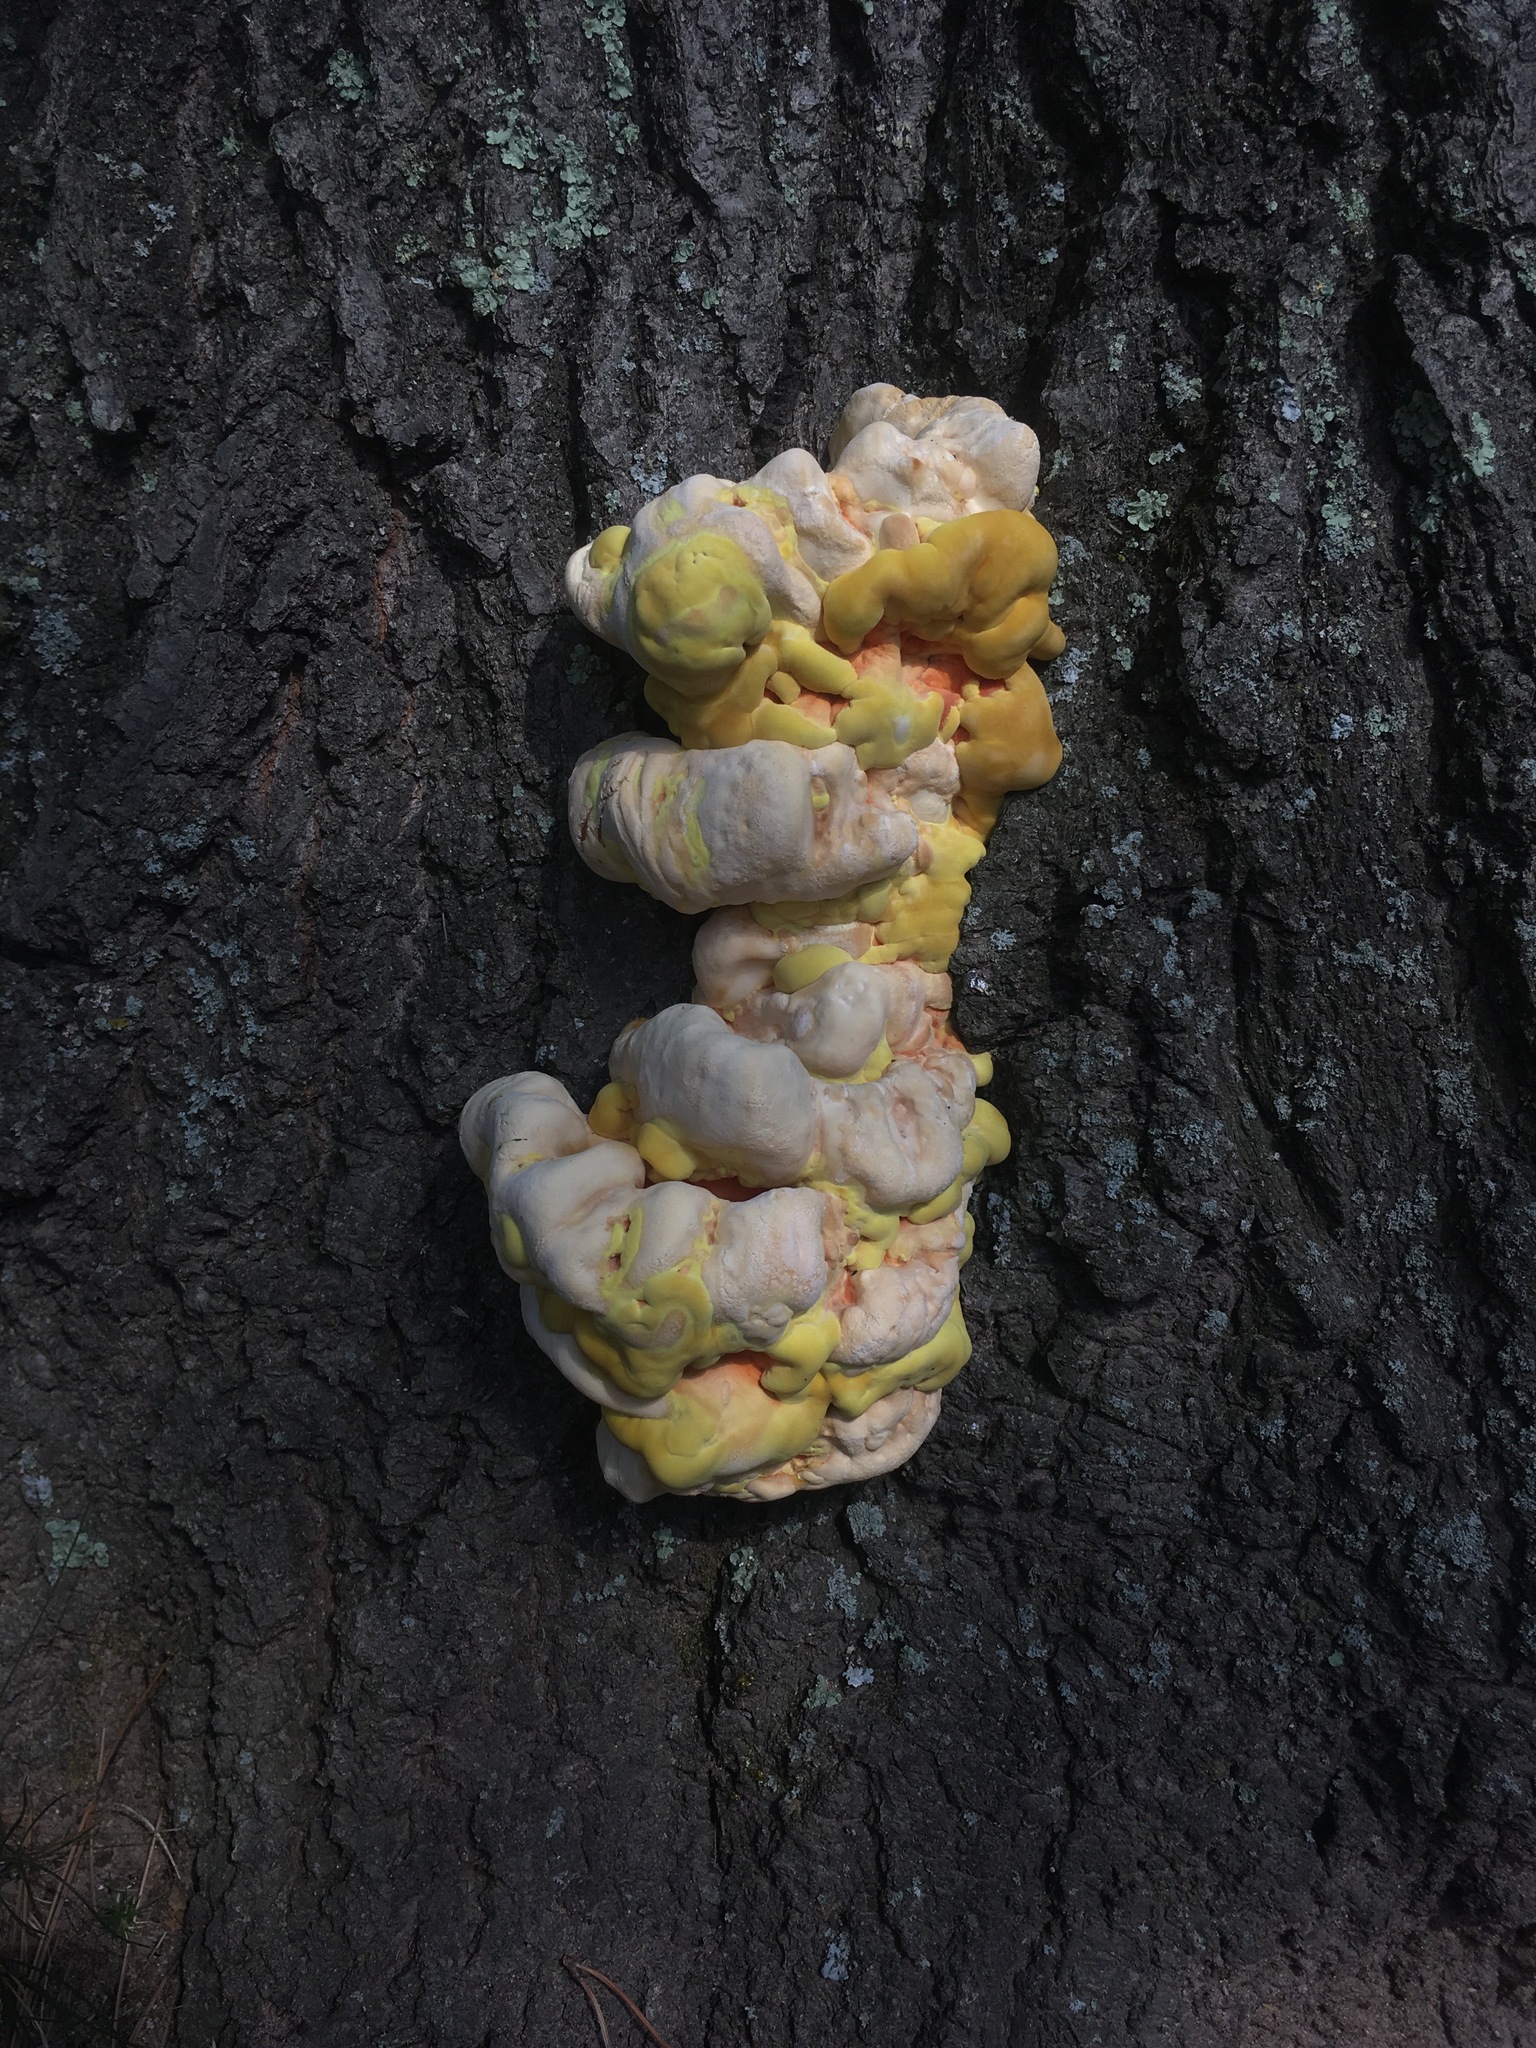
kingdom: Fungi
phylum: Basidiomycota
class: Agaricomycetes
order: Polyporales
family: Laetiporaceae
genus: Laetiporus
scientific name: Laetiporus sulphureus
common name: Chicken of the woods
